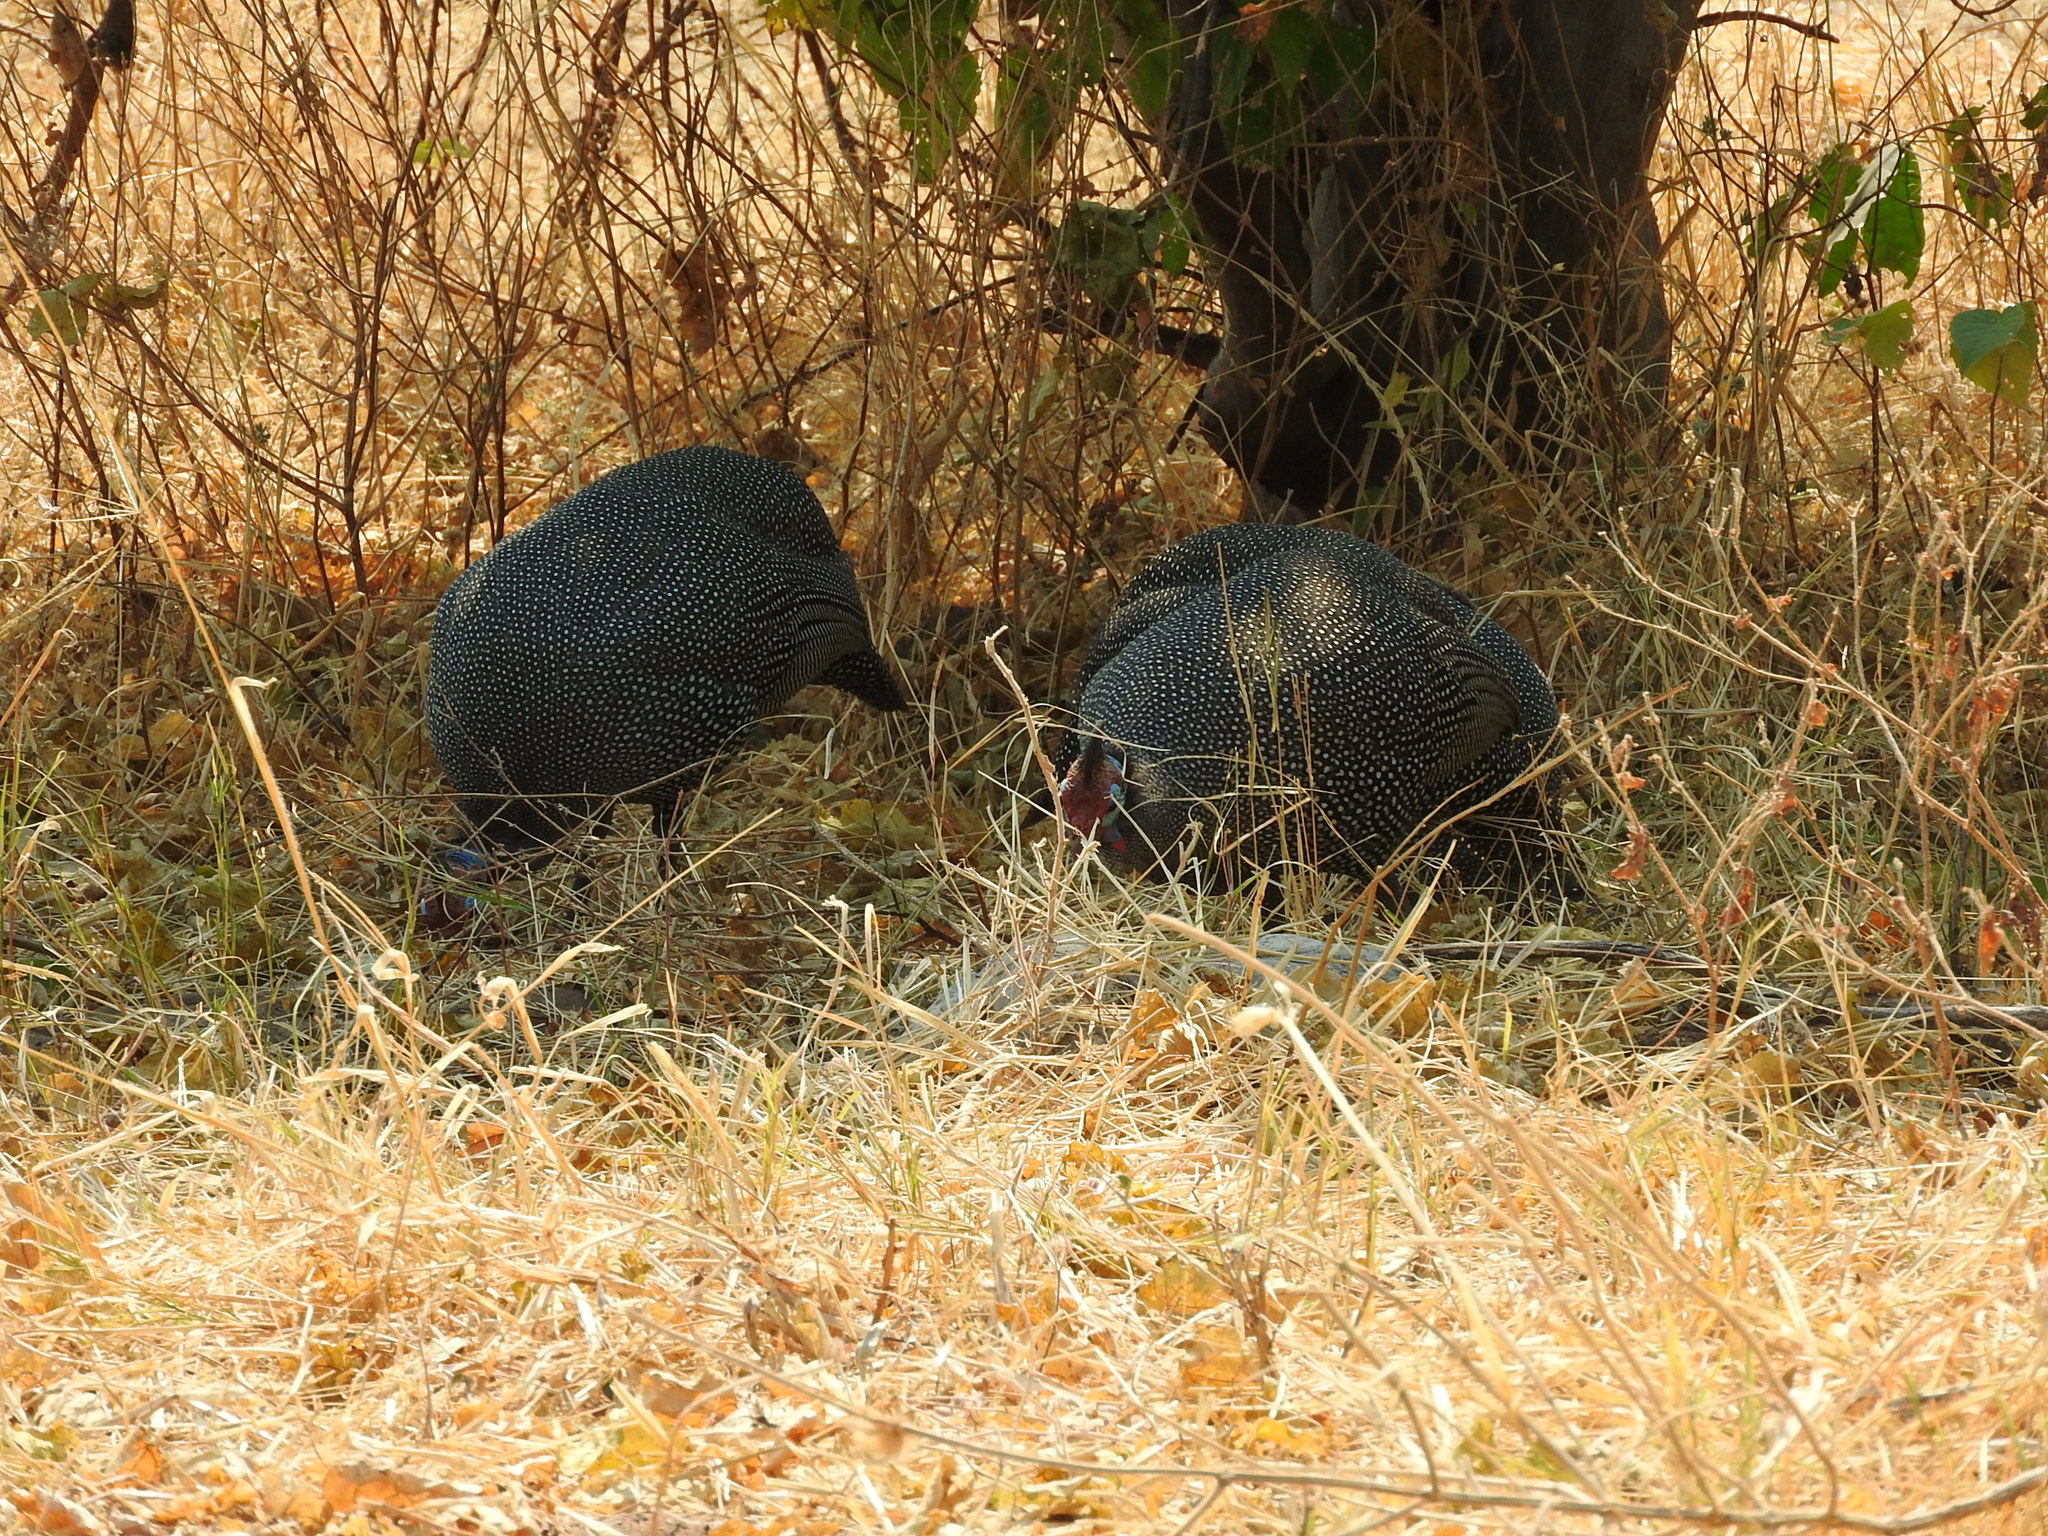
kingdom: Animalia
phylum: Chordata
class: Aves
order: Galliformes
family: Numididae
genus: Numida
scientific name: Numida meleagris
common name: Helmeted guineafowl
